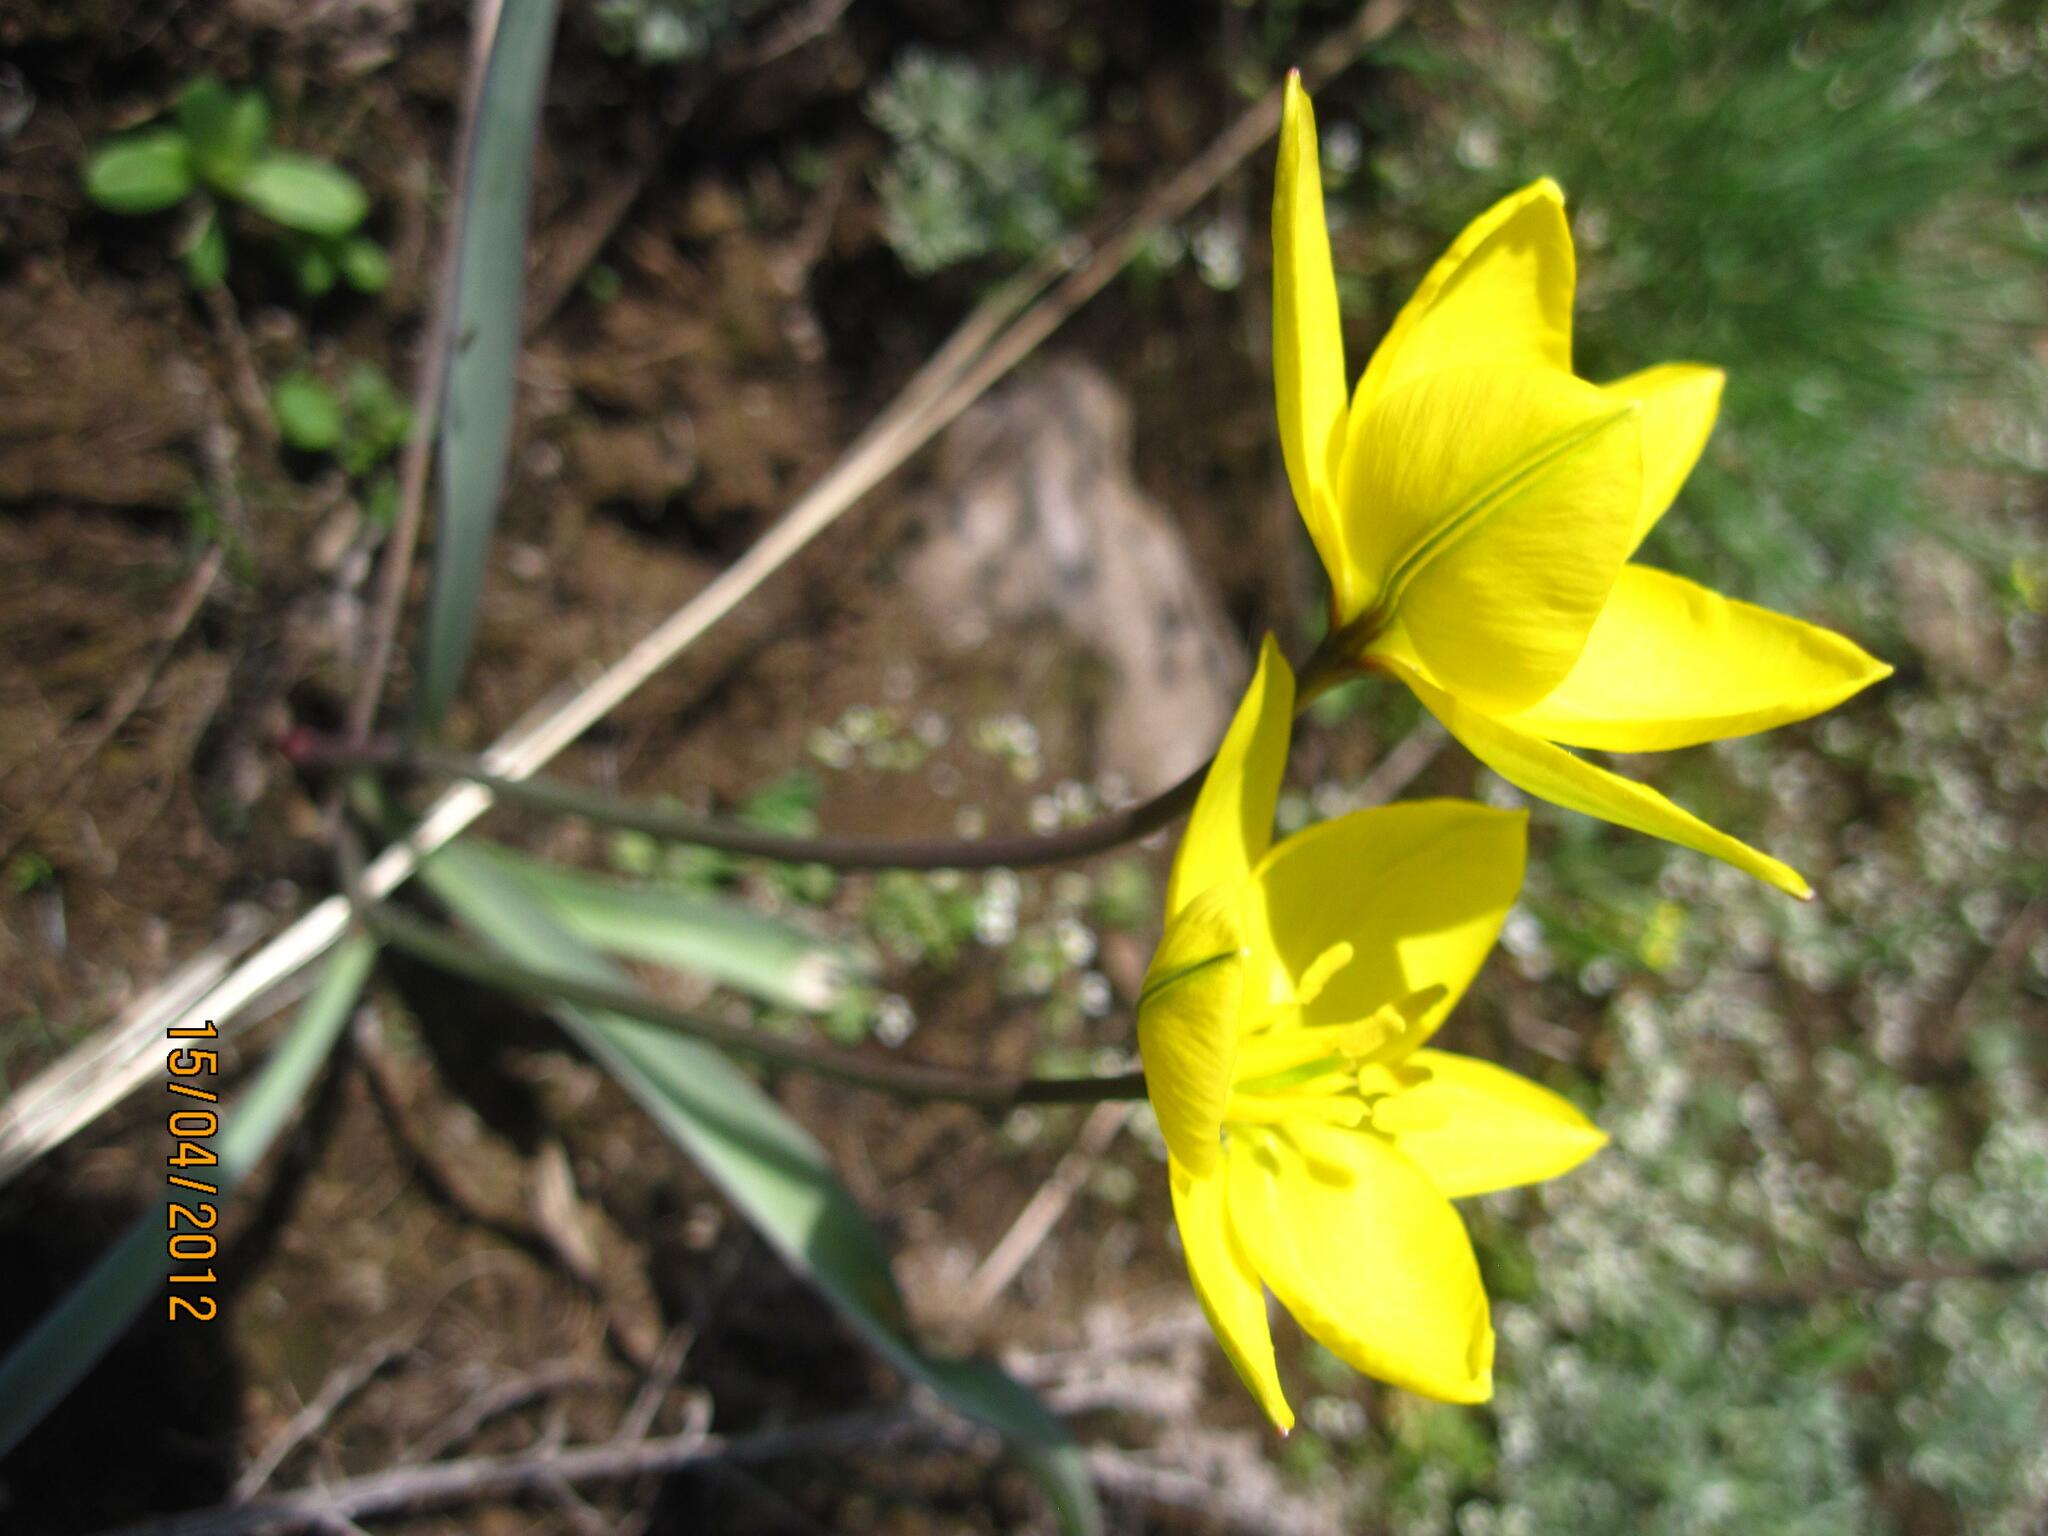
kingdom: Plantae
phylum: Tracheophyta
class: Liliopsida
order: Liliales
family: Liliaceae
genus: Tulipa
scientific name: Tulipa sylvestris
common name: Wild tulip
